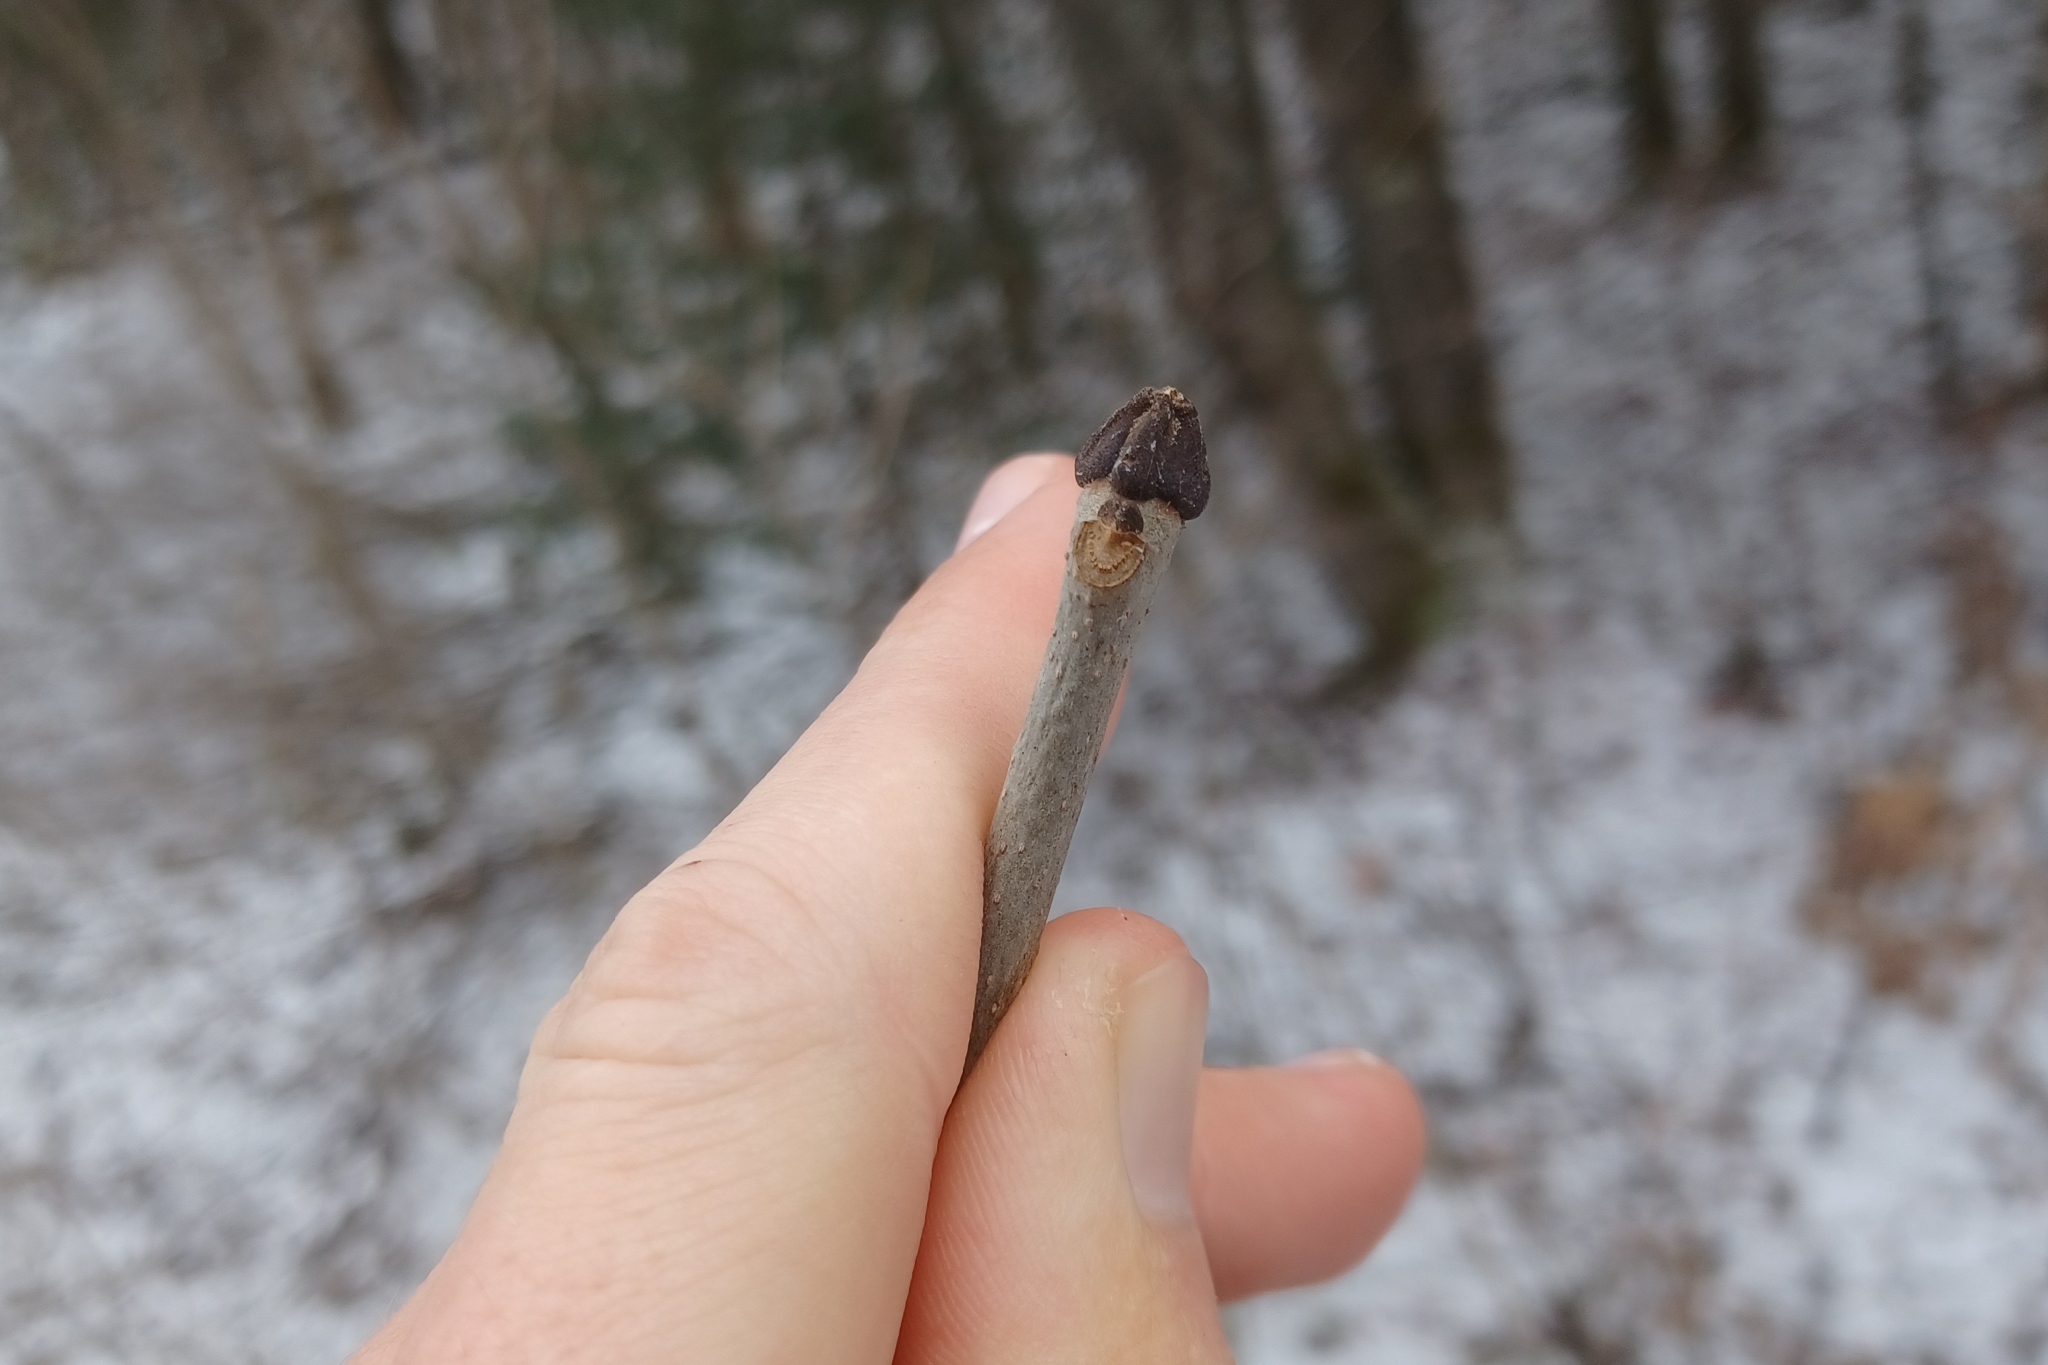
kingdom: Plantae
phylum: Tracheophyta
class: Magnoliopsida
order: Lamiales
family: Oleaceae
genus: Fraxinus
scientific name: Fraxinus nigra
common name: Black ash
